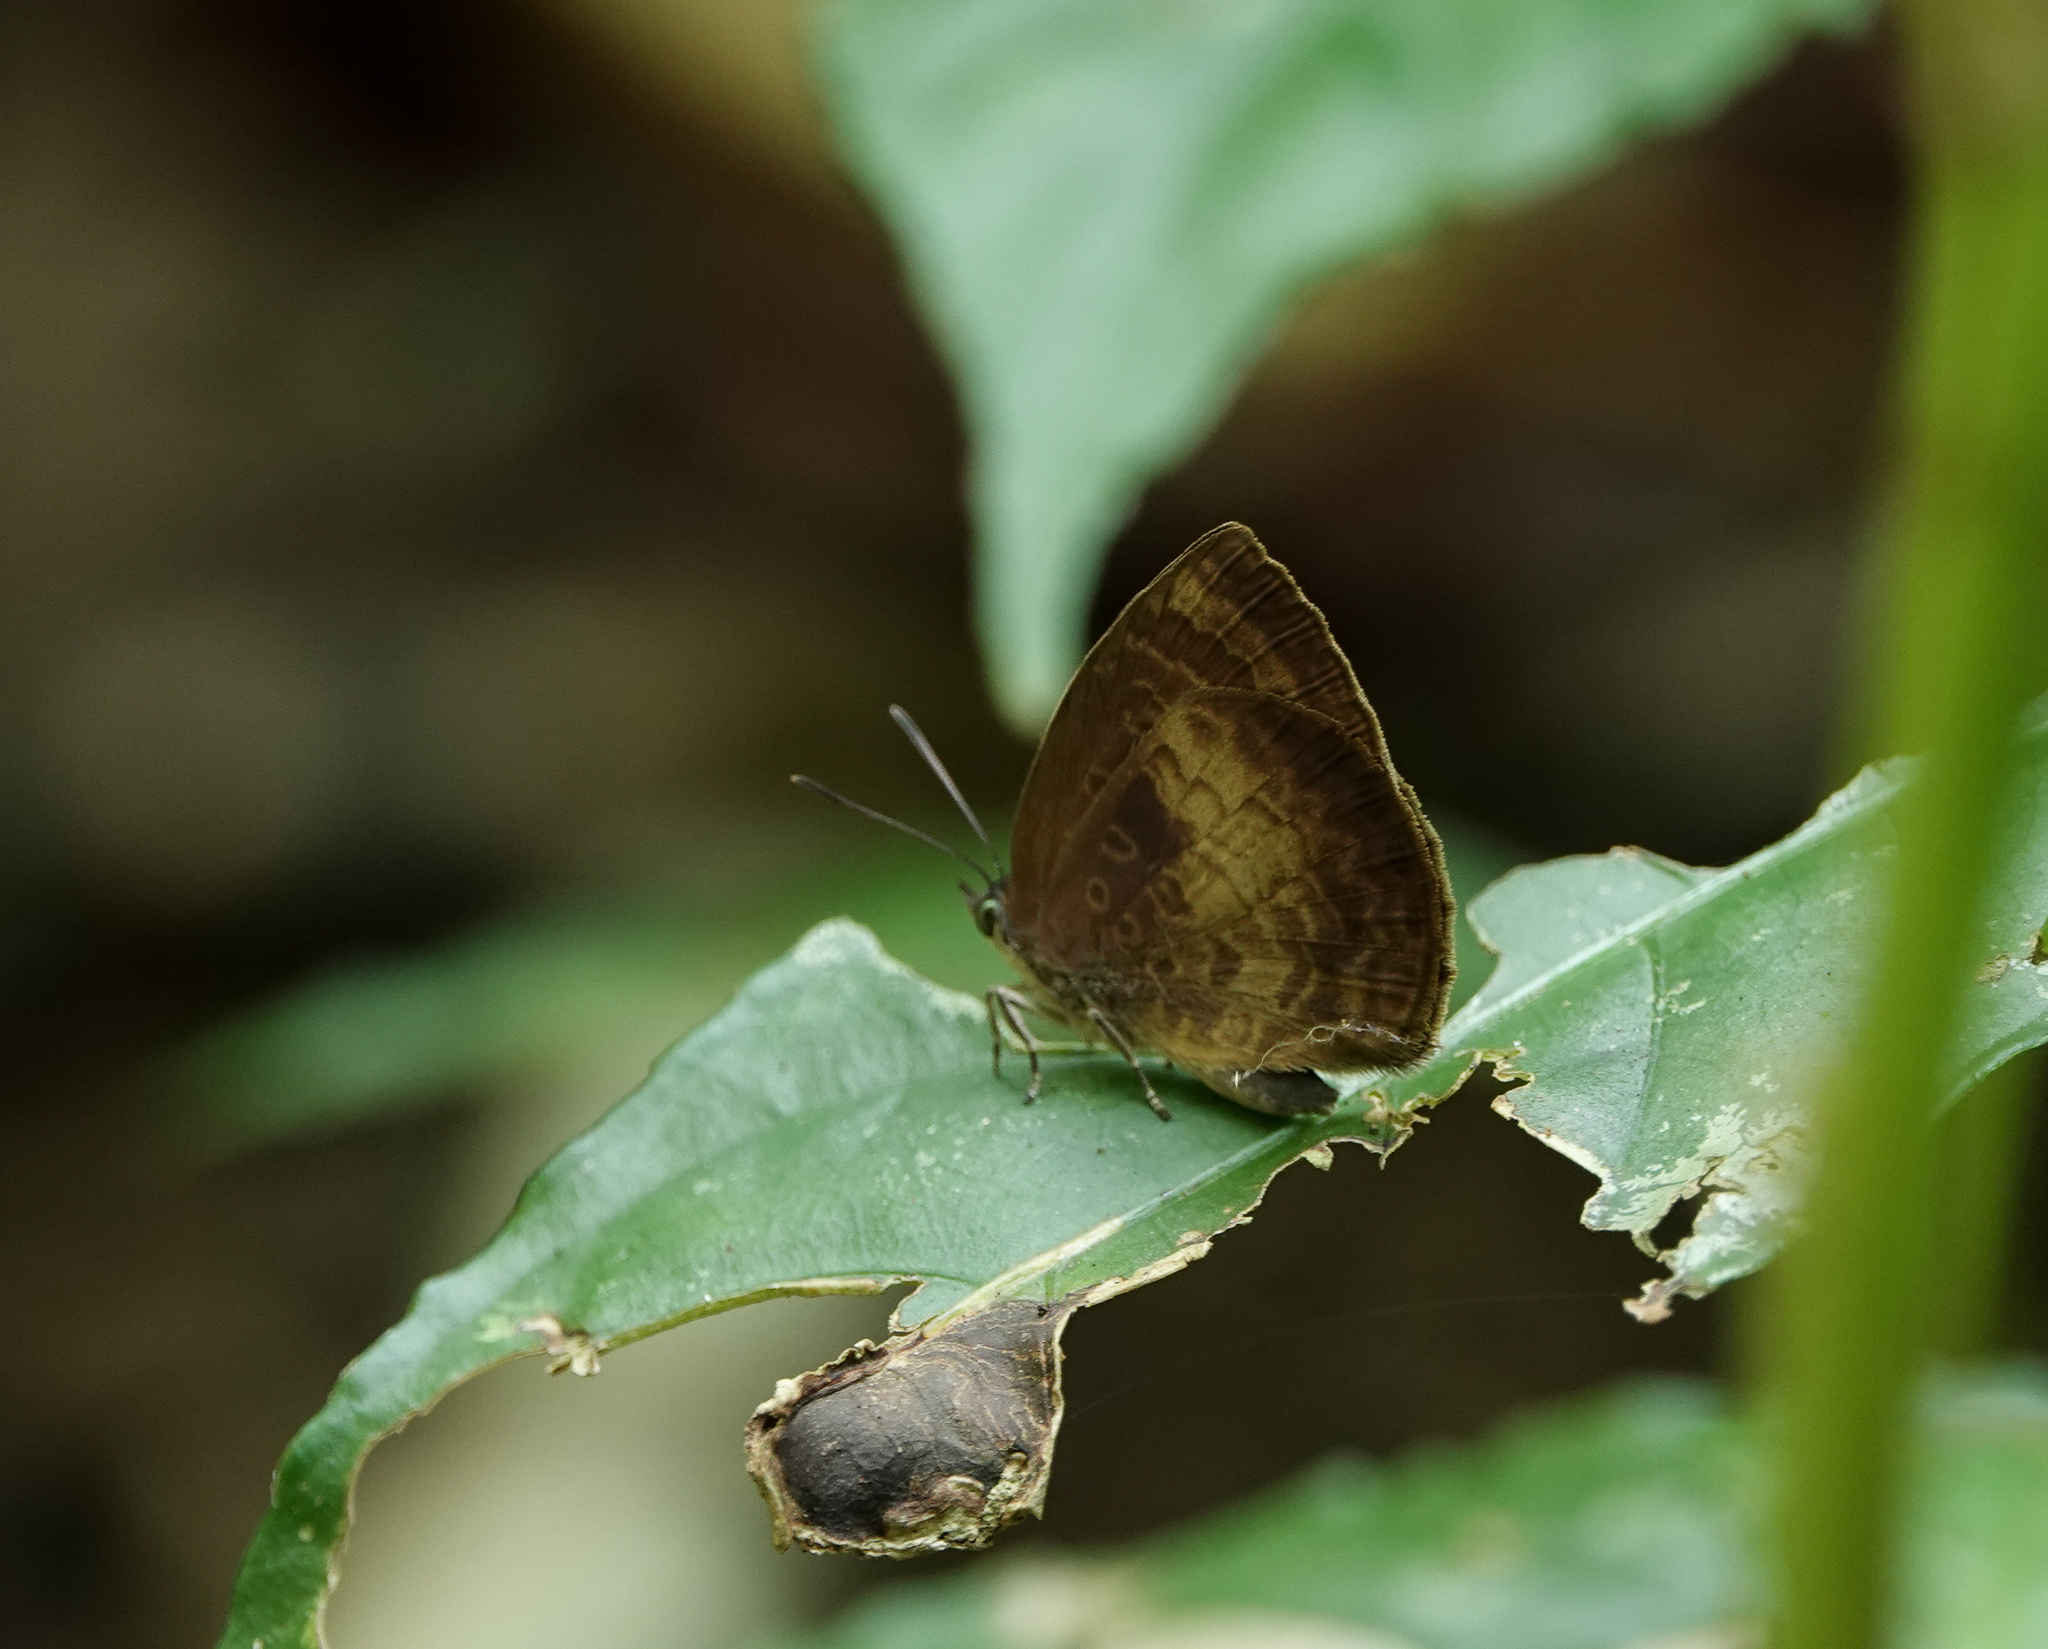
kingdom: Animalia
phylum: Arthropoda
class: Insecta
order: Lepidoptera
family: Lycaenidae
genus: Arhopala
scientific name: Arhopala perimuta
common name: Yellowdisc oakblue
